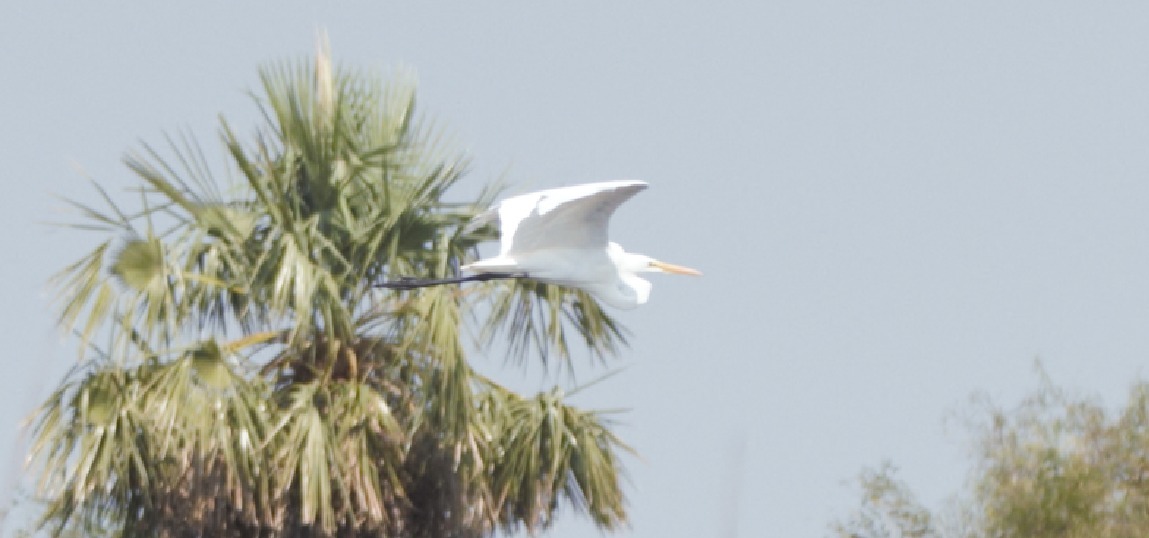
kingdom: Animalia
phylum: Chordata
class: Aves
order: Pelecaniformes
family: Ardeidae
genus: Ardea
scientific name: Ardea alba
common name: Great egret
